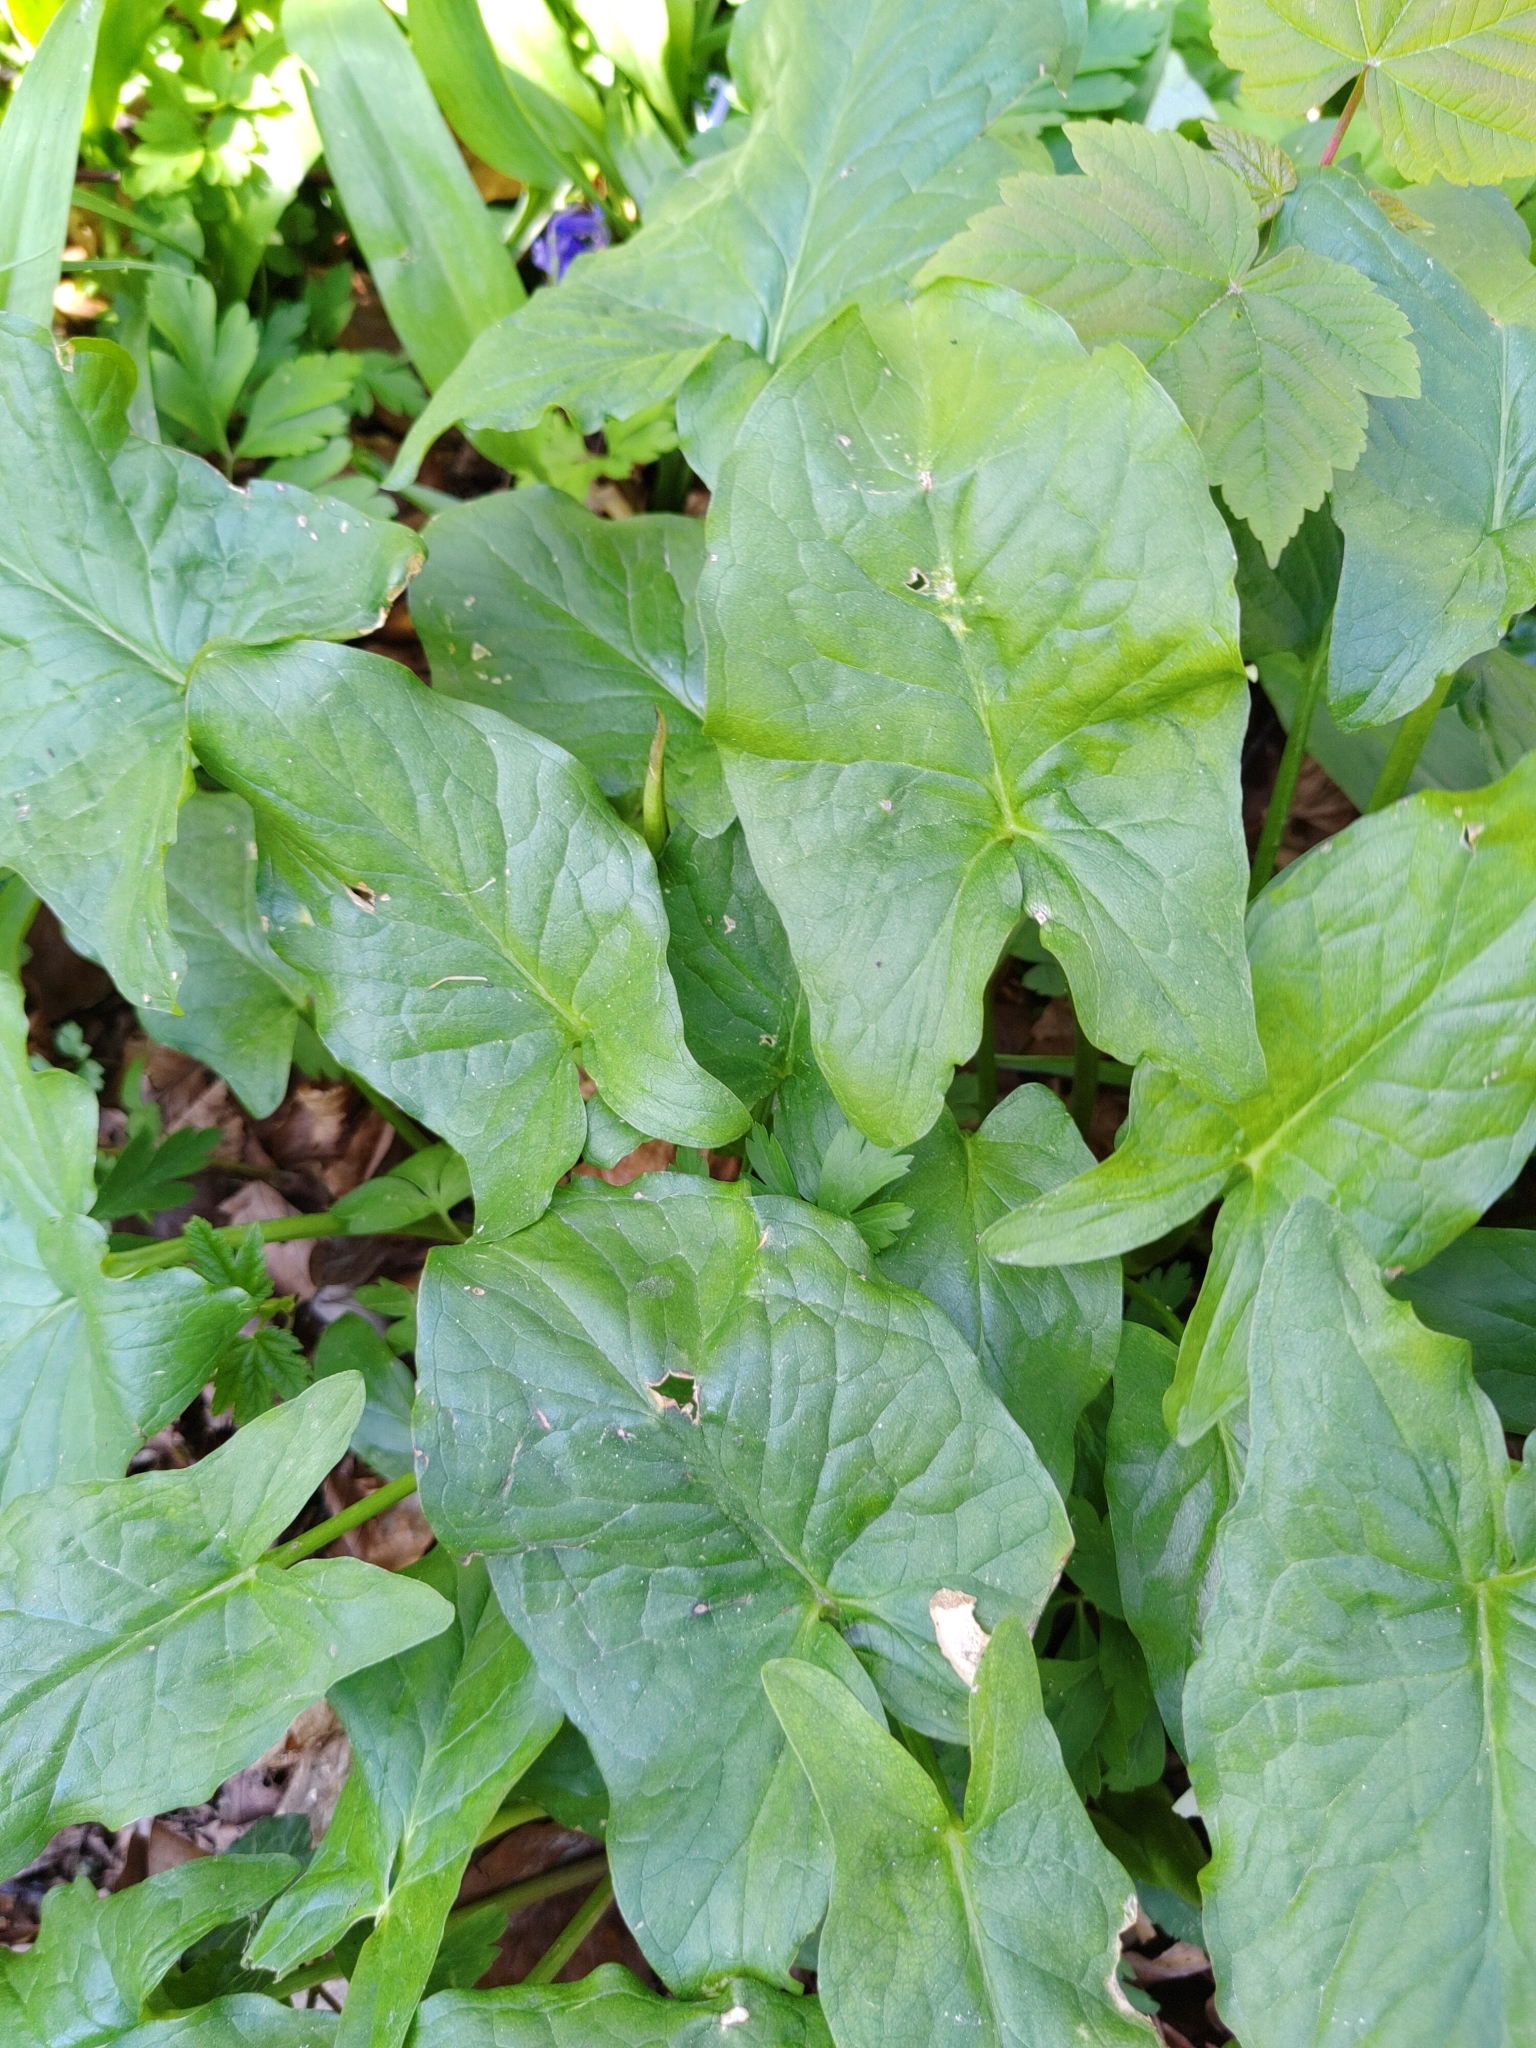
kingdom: Plantae
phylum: Tracheophyta
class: Liliopsida
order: Alismatales
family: Araceae
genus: Arum
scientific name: Arum maculatum
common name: Lords-and-ladies
